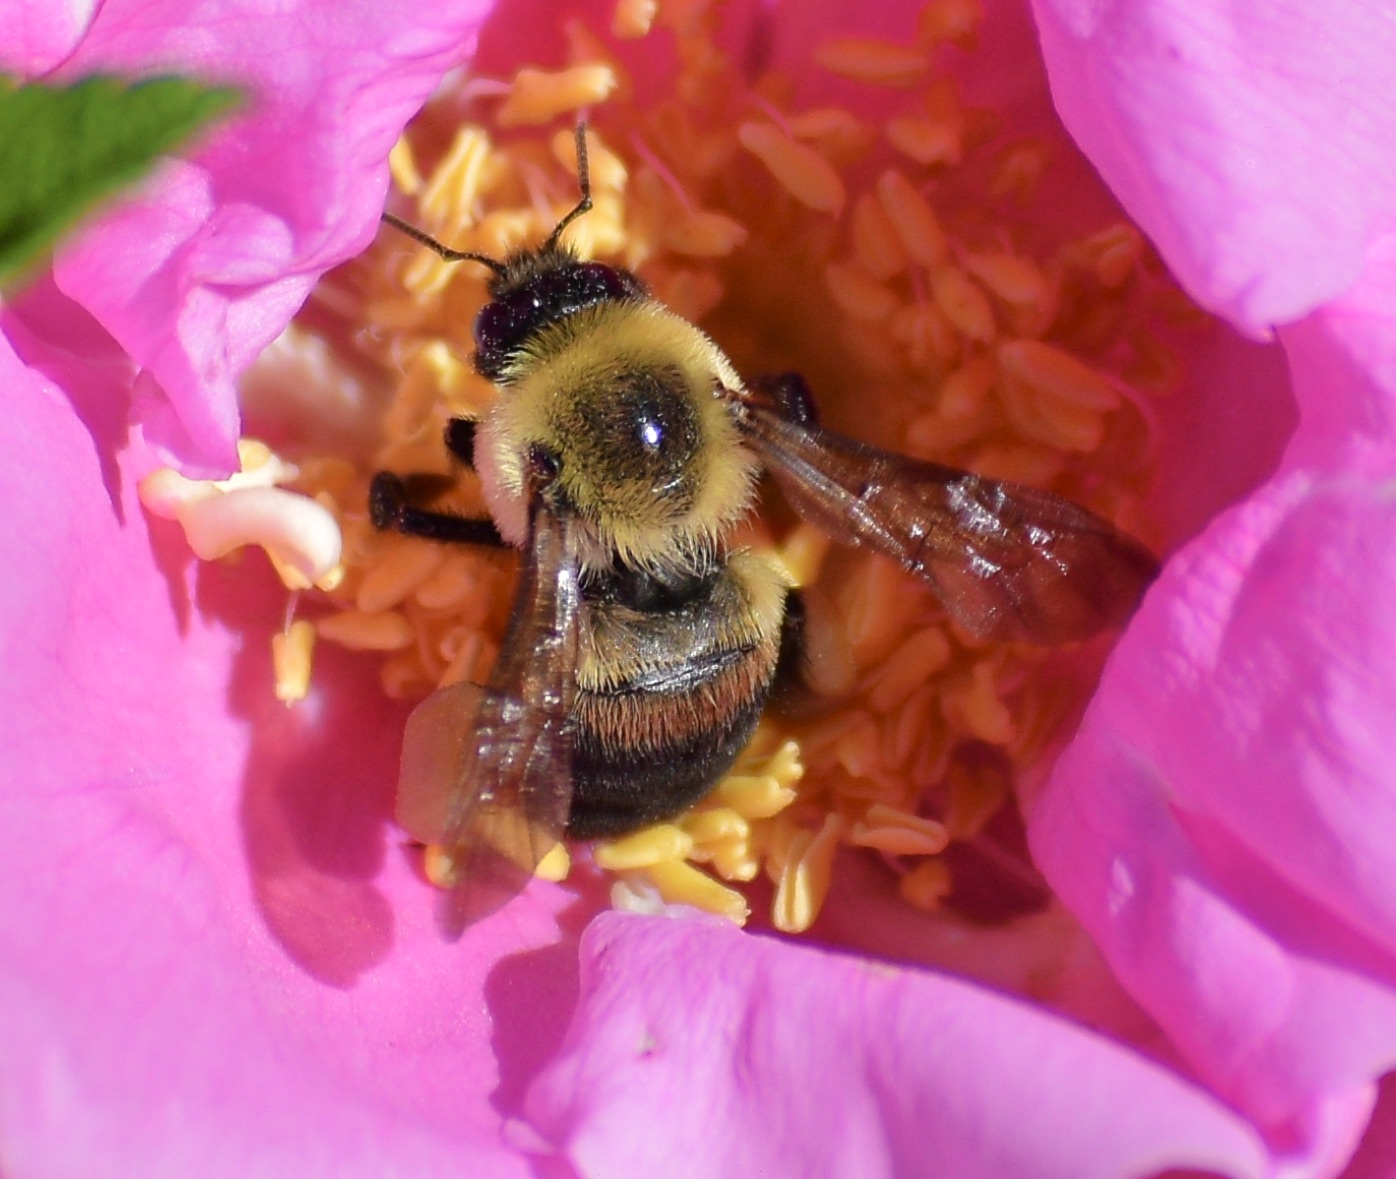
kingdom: Animalia
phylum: Arthropoda
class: Insecta
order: Hymenoptera
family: Apidae
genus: Bombus
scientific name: Bombus griseocollis
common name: Brown-belted bumble bee
